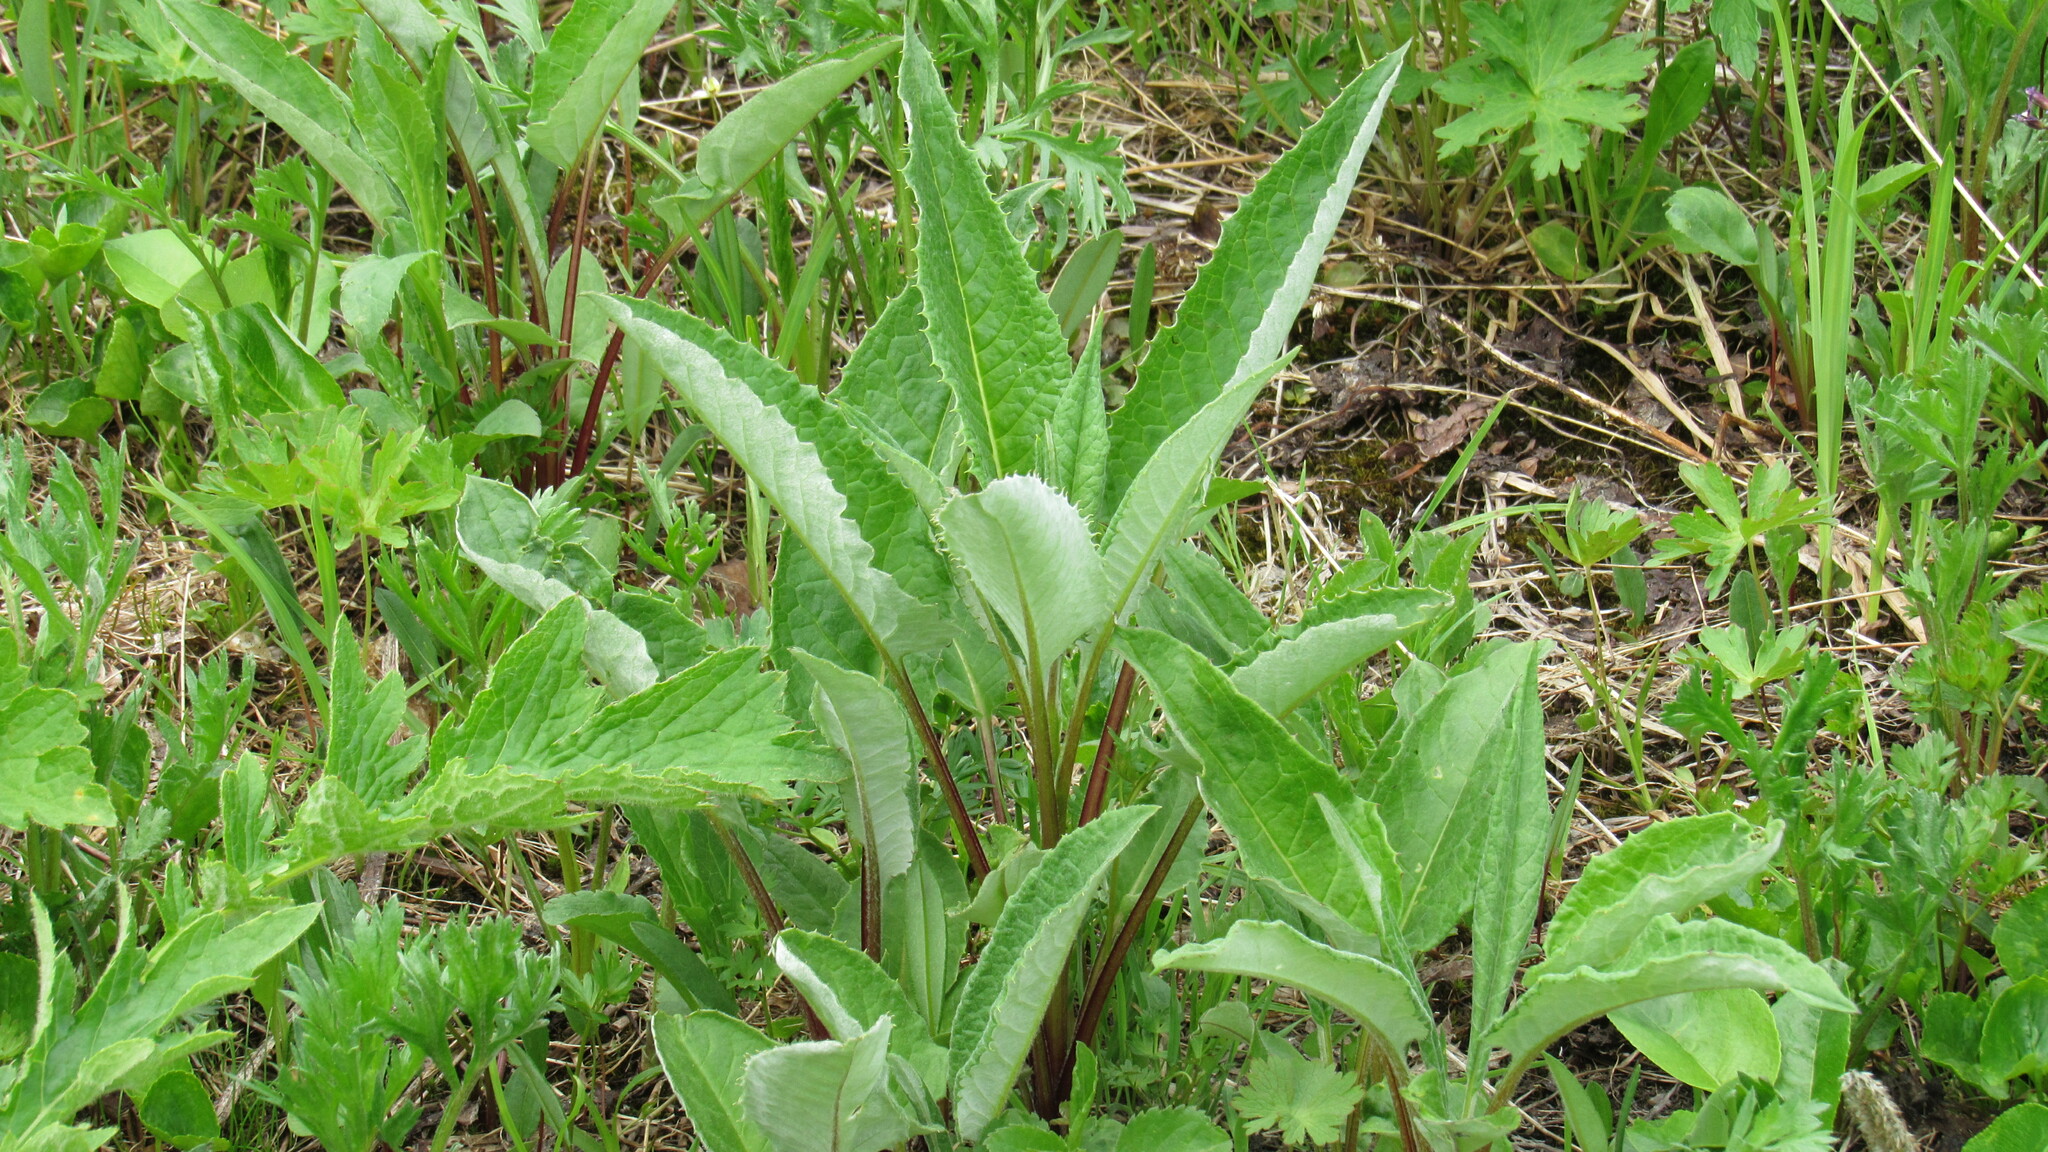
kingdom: Plantae
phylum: Tracheophyta
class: Magnoliopsida
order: Asterales
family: Asteraceae
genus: Saussurea
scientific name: Saussurea pseudotilesii
